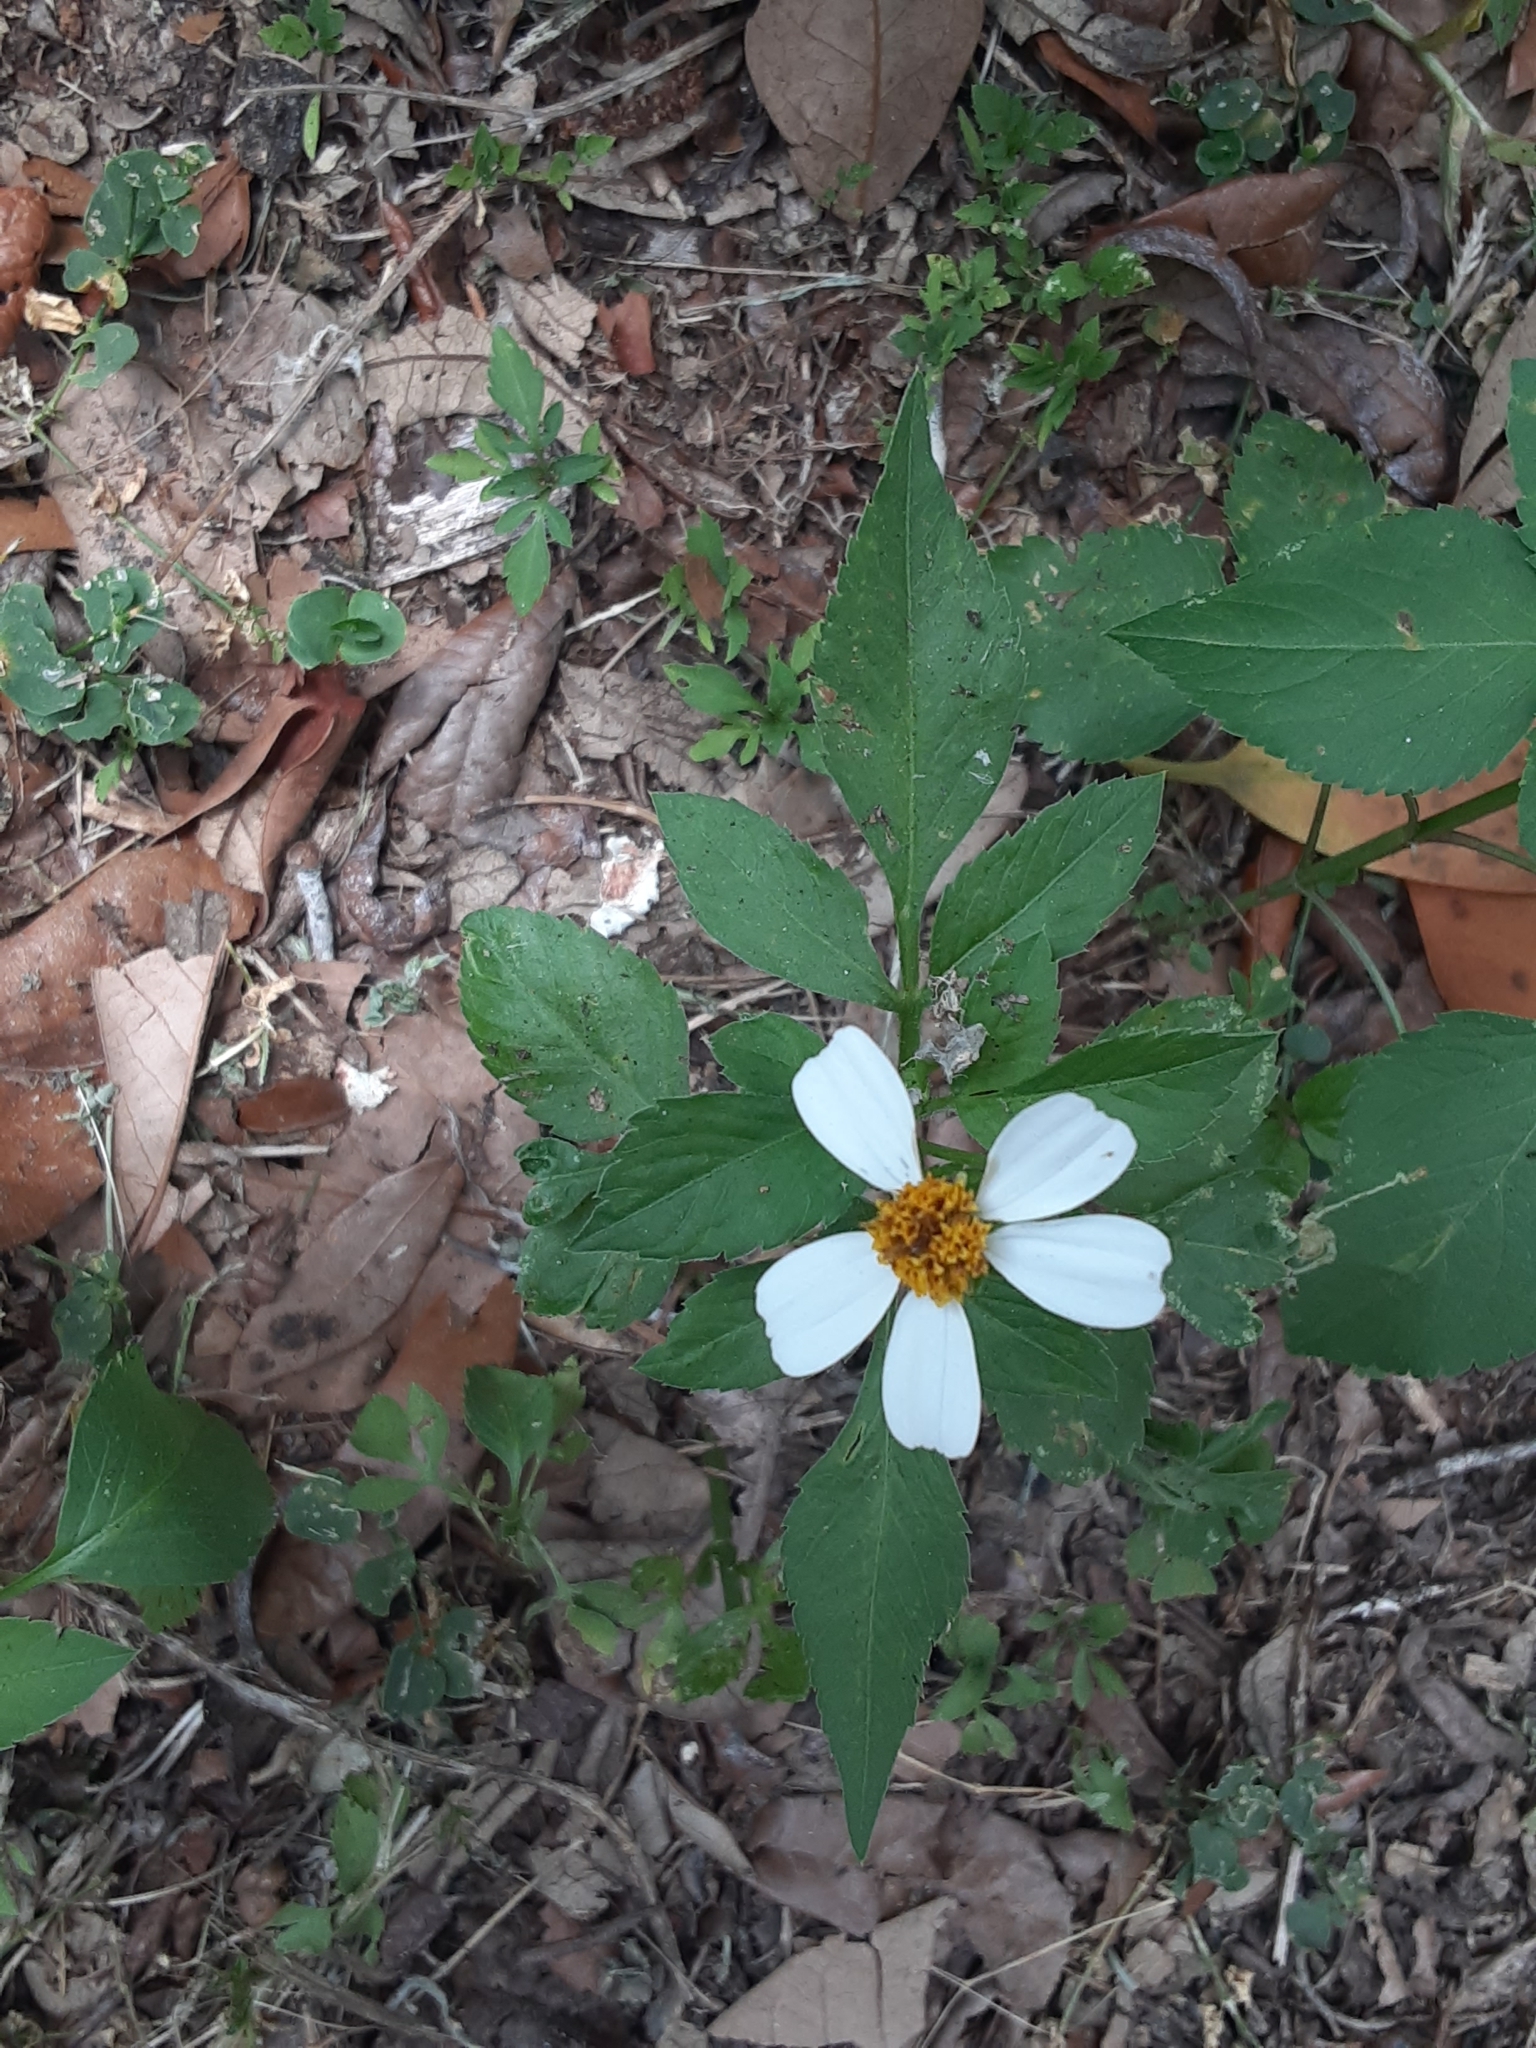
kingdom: Plantae
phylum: Tracheophyta
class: Magnoliopsida
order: Asterales
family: Asteraceae
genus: Bidens
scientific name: Bidens alba
